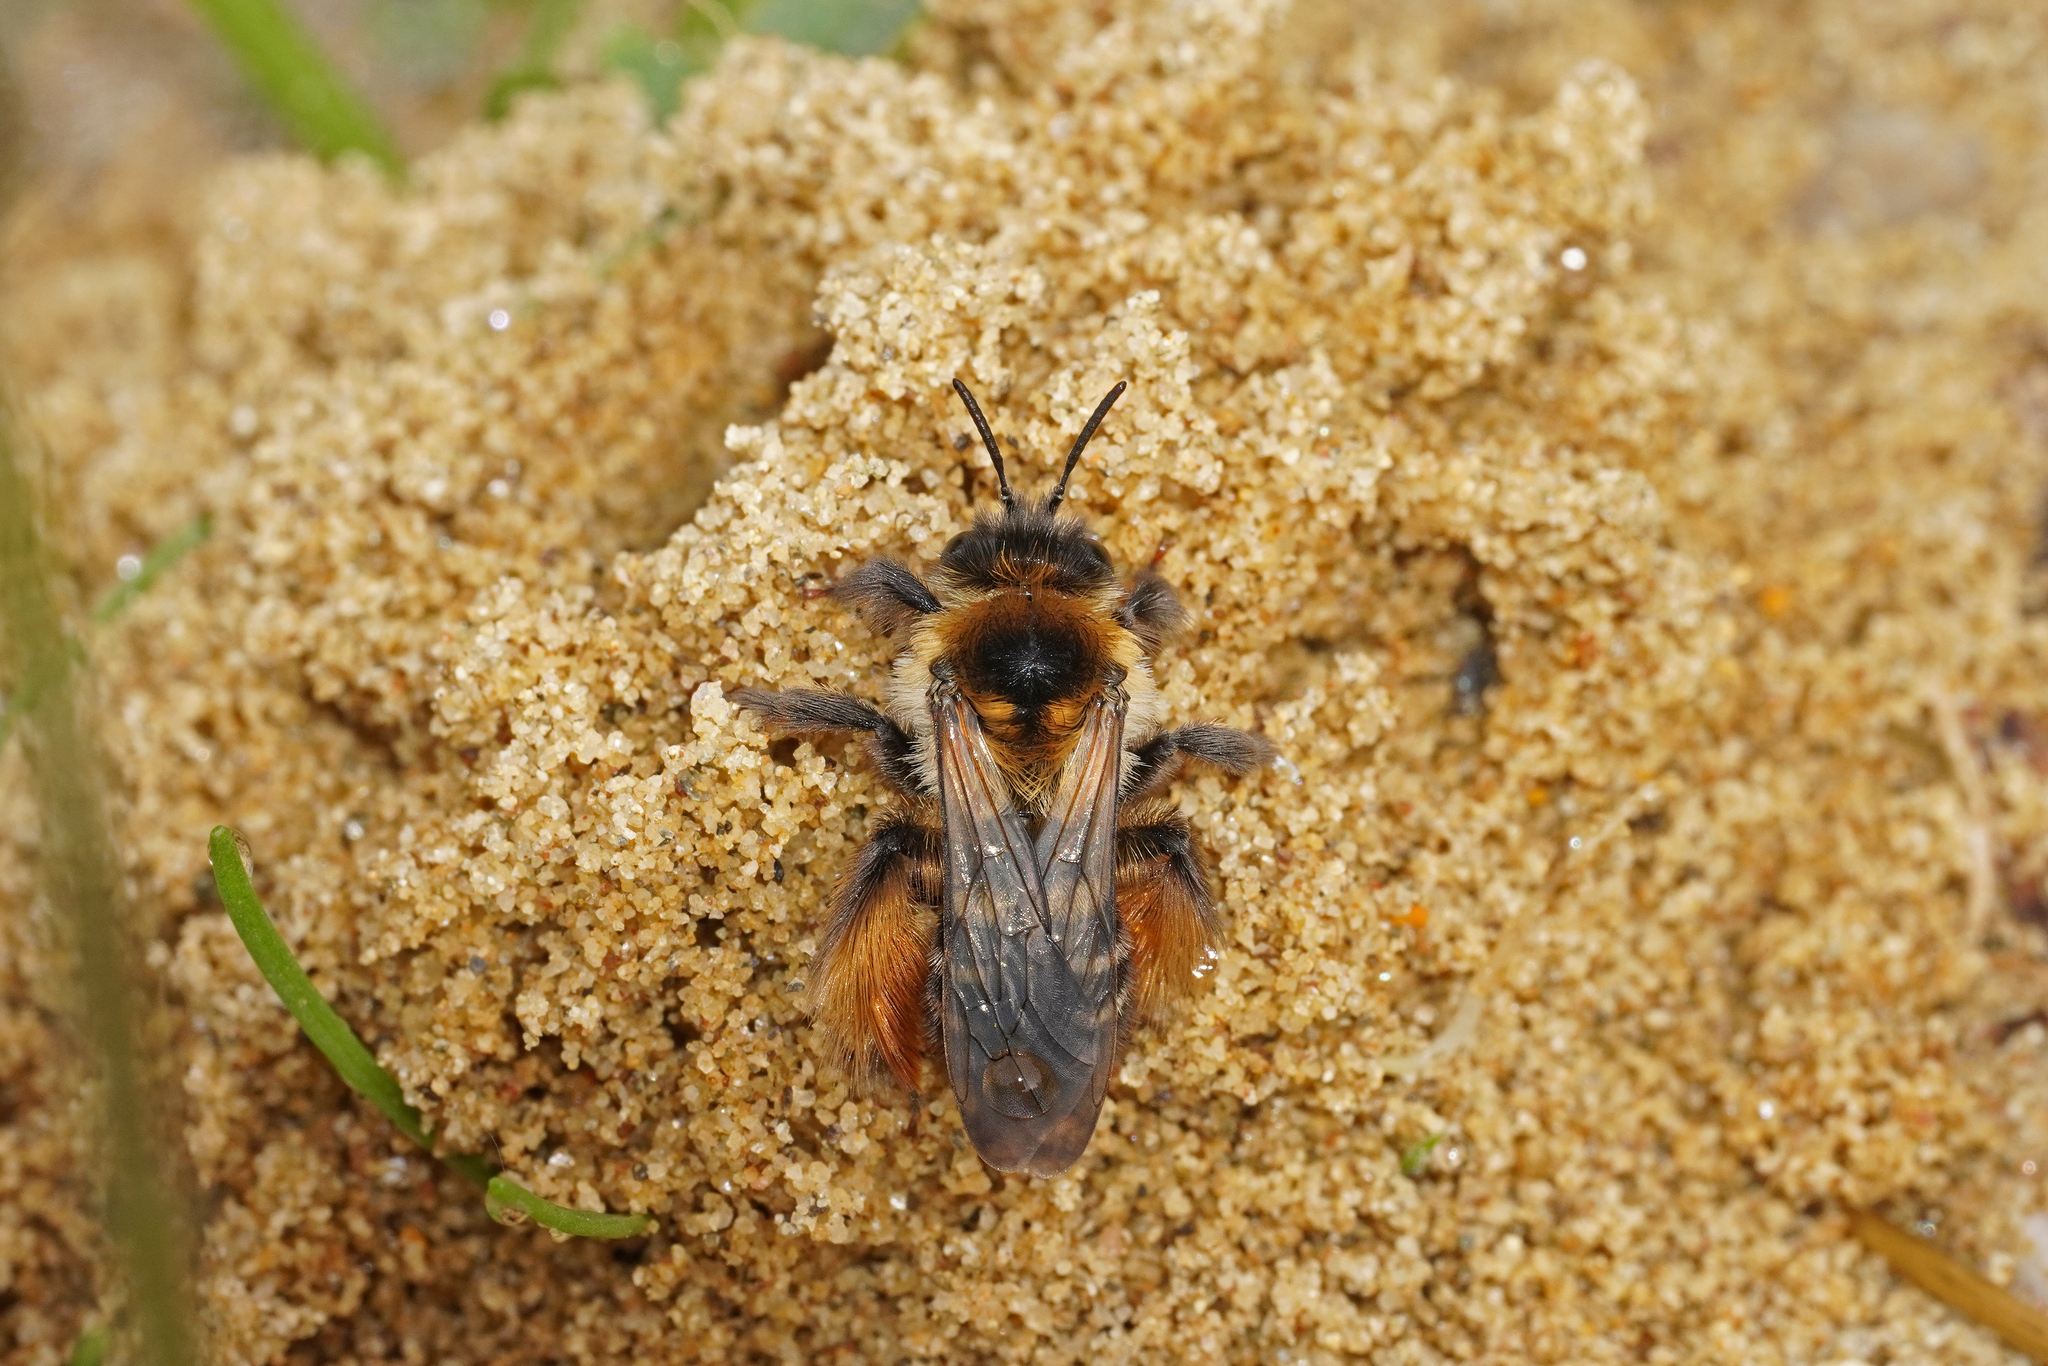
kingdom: Animalia
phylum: Arthropoda
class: Insecta
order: Hymenoptera
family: Melittidae
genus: Dasypoda
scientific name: Dasypoda hirtipes
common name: Pantaloon bee
